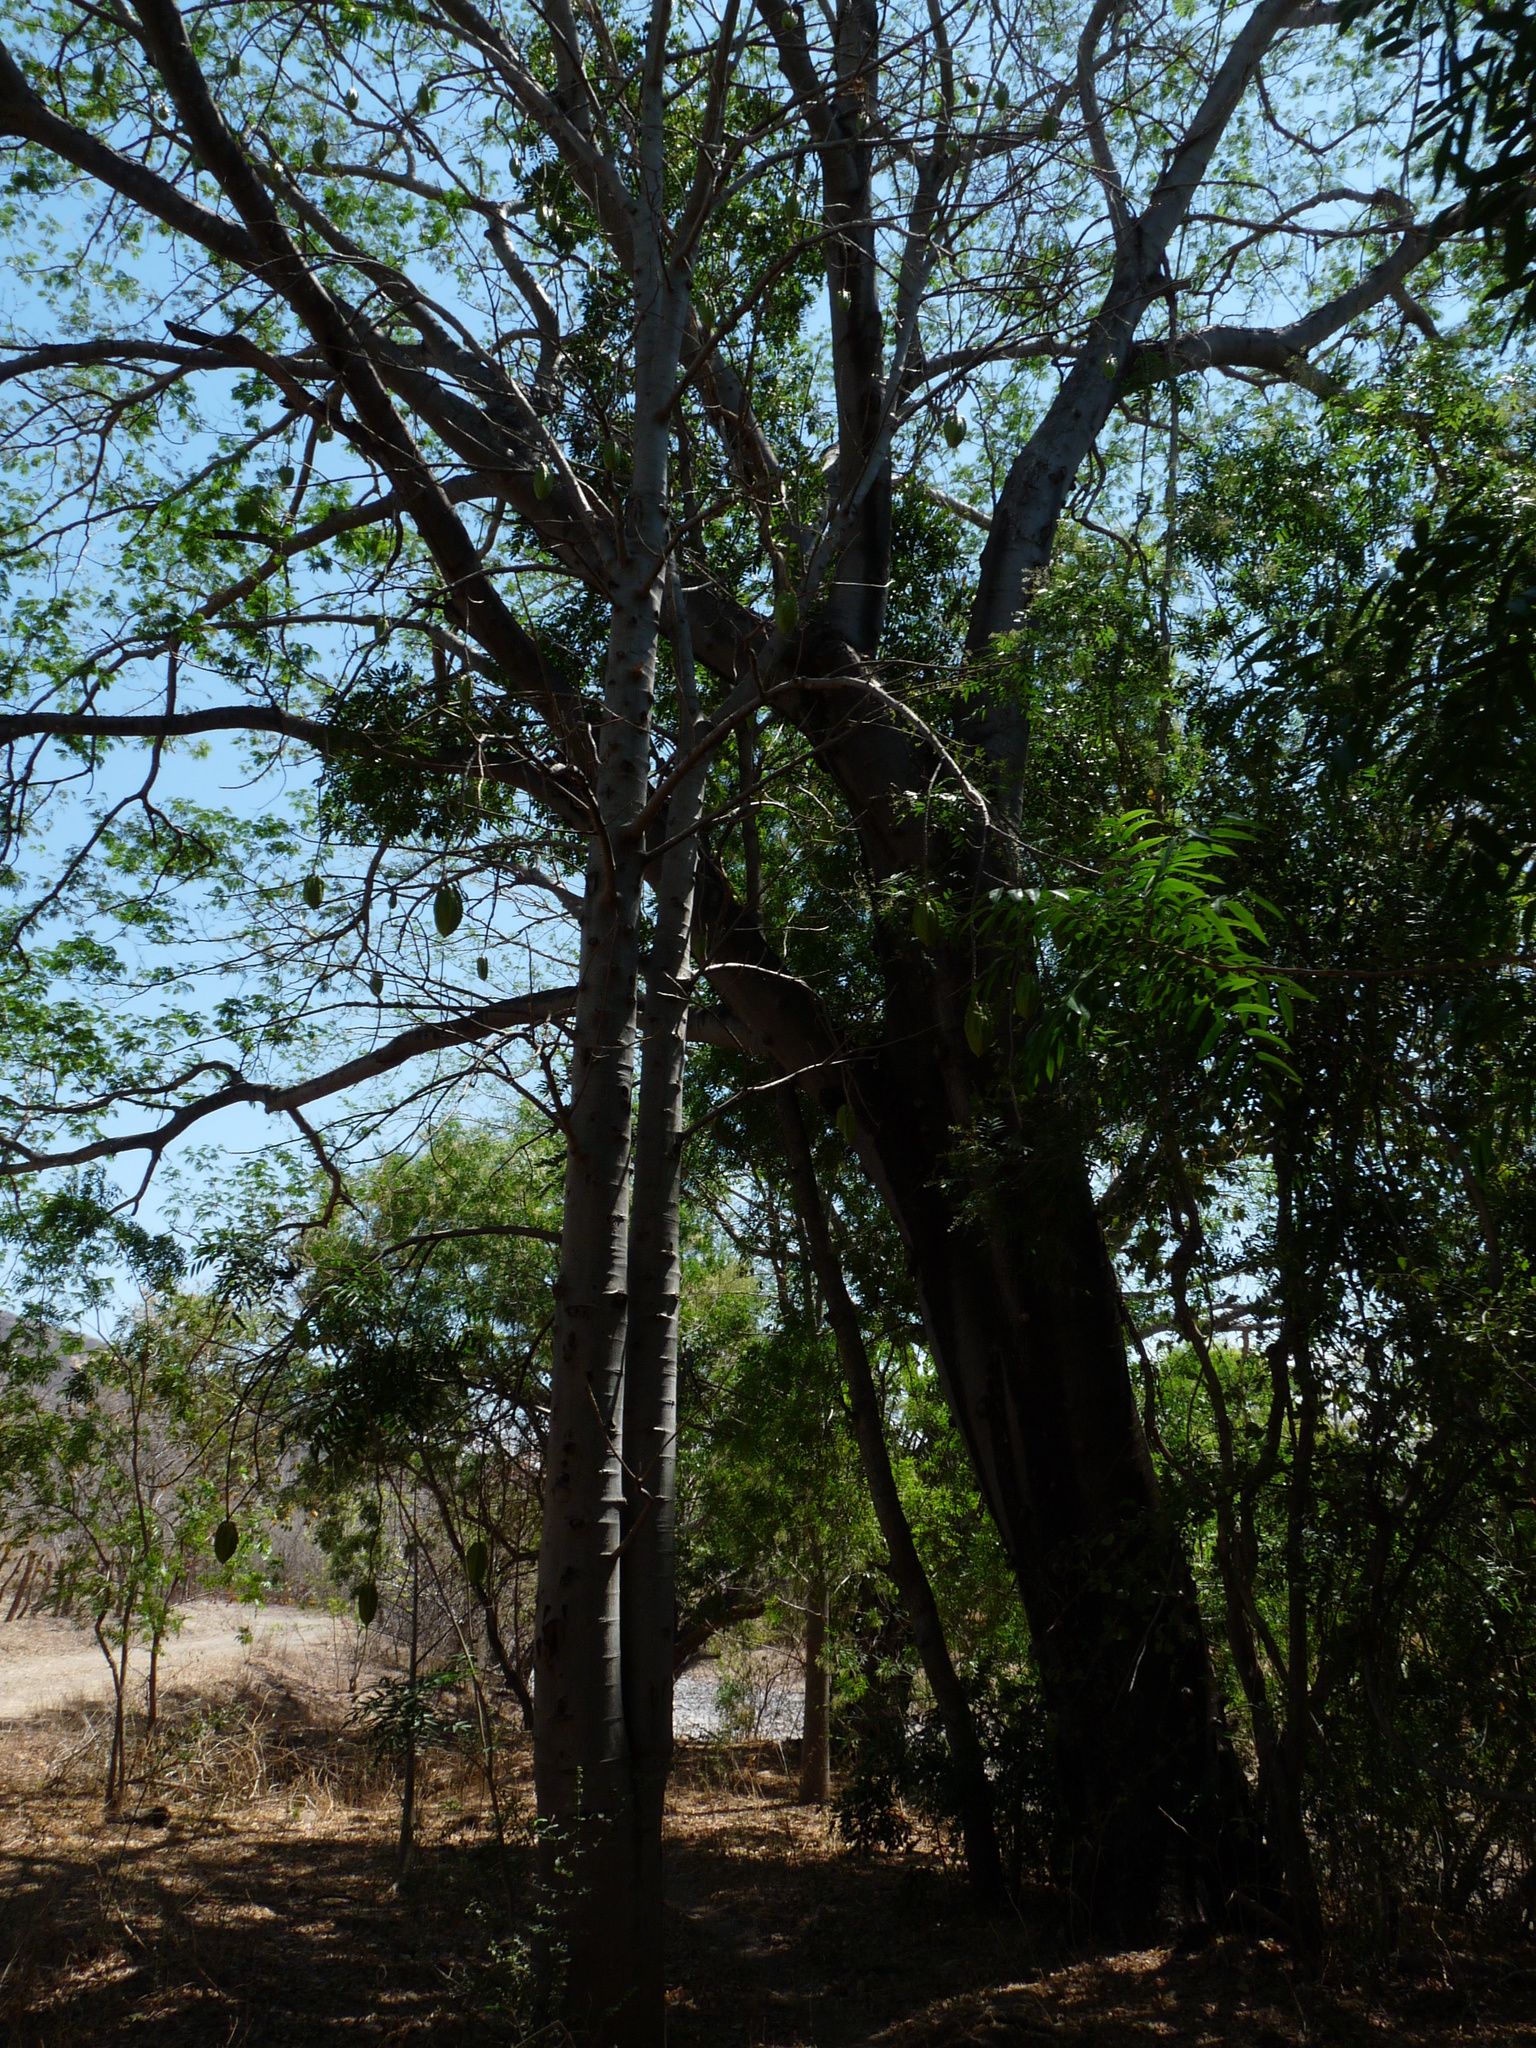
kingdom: Plantae
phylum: Tracheophyta
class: Magnoliopsida
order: Brassicales
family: Caricaceae
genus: Jacaratia
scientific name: Jacaratia mexicana
